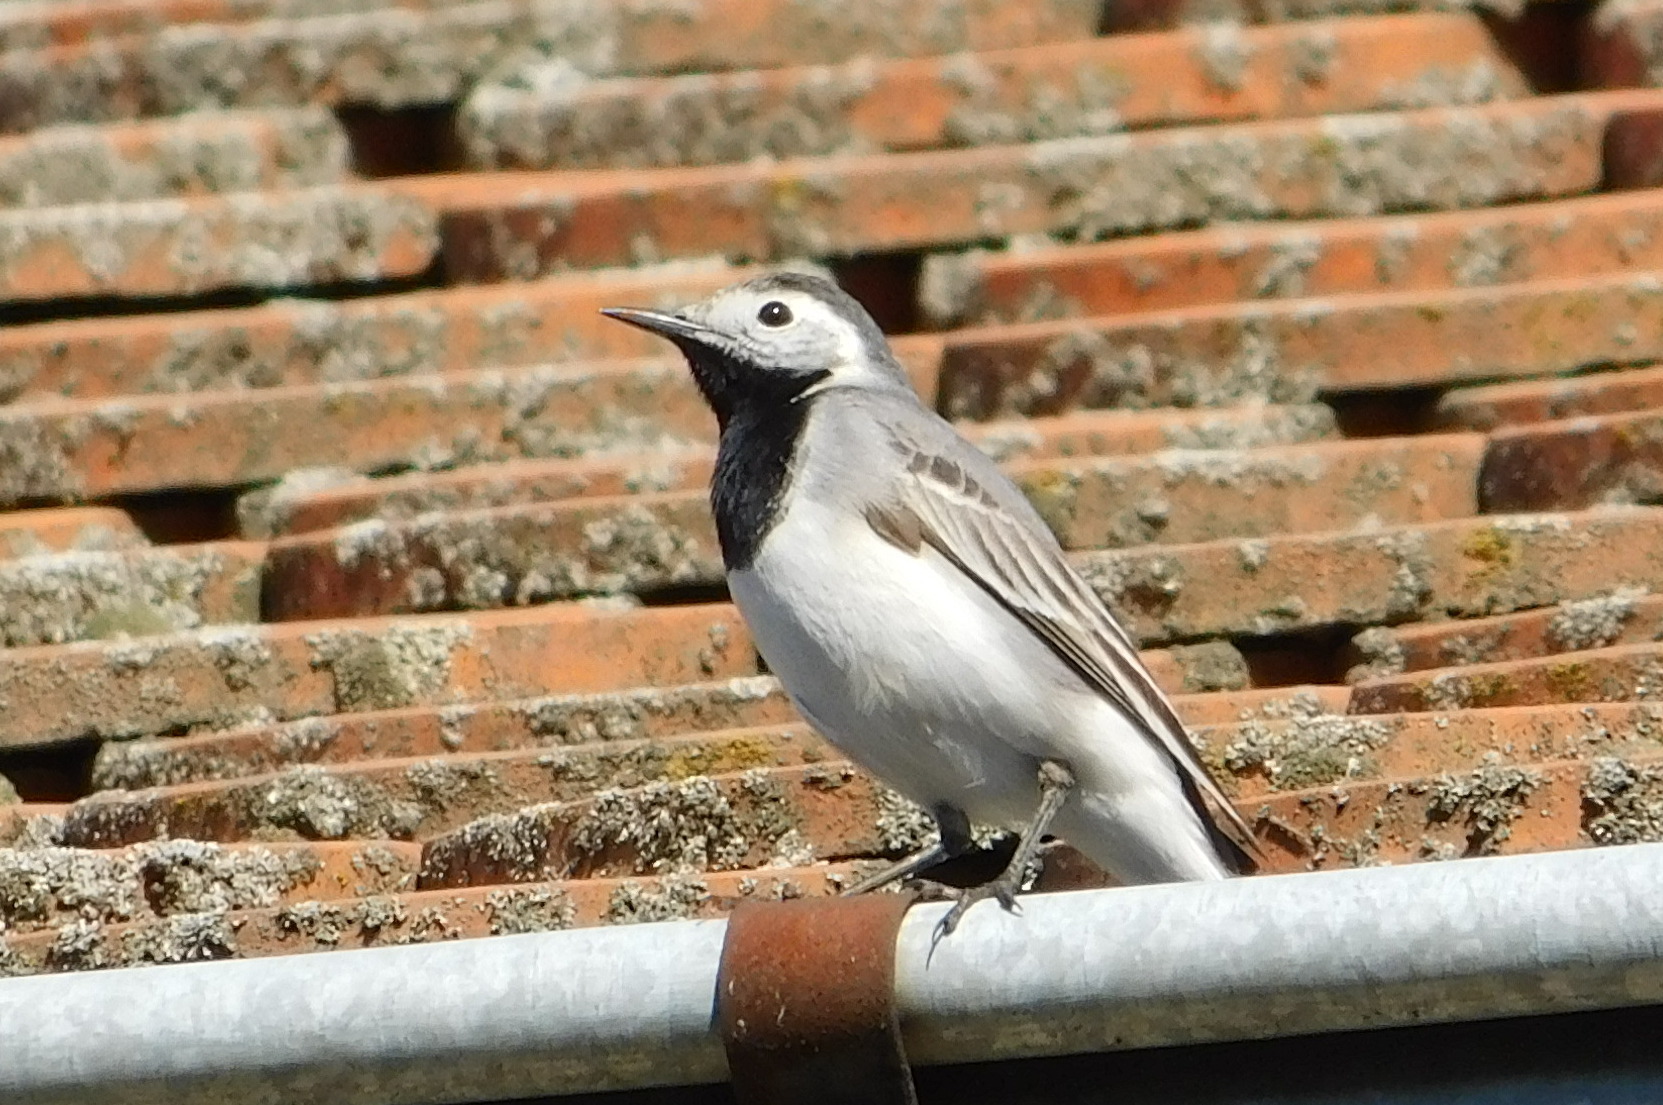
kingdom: Animalia
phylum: Chordata
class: Aves
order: Passeriformes
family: Motacillidae
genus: Motacilla
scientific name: Motacilla alba
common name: White wagtail
